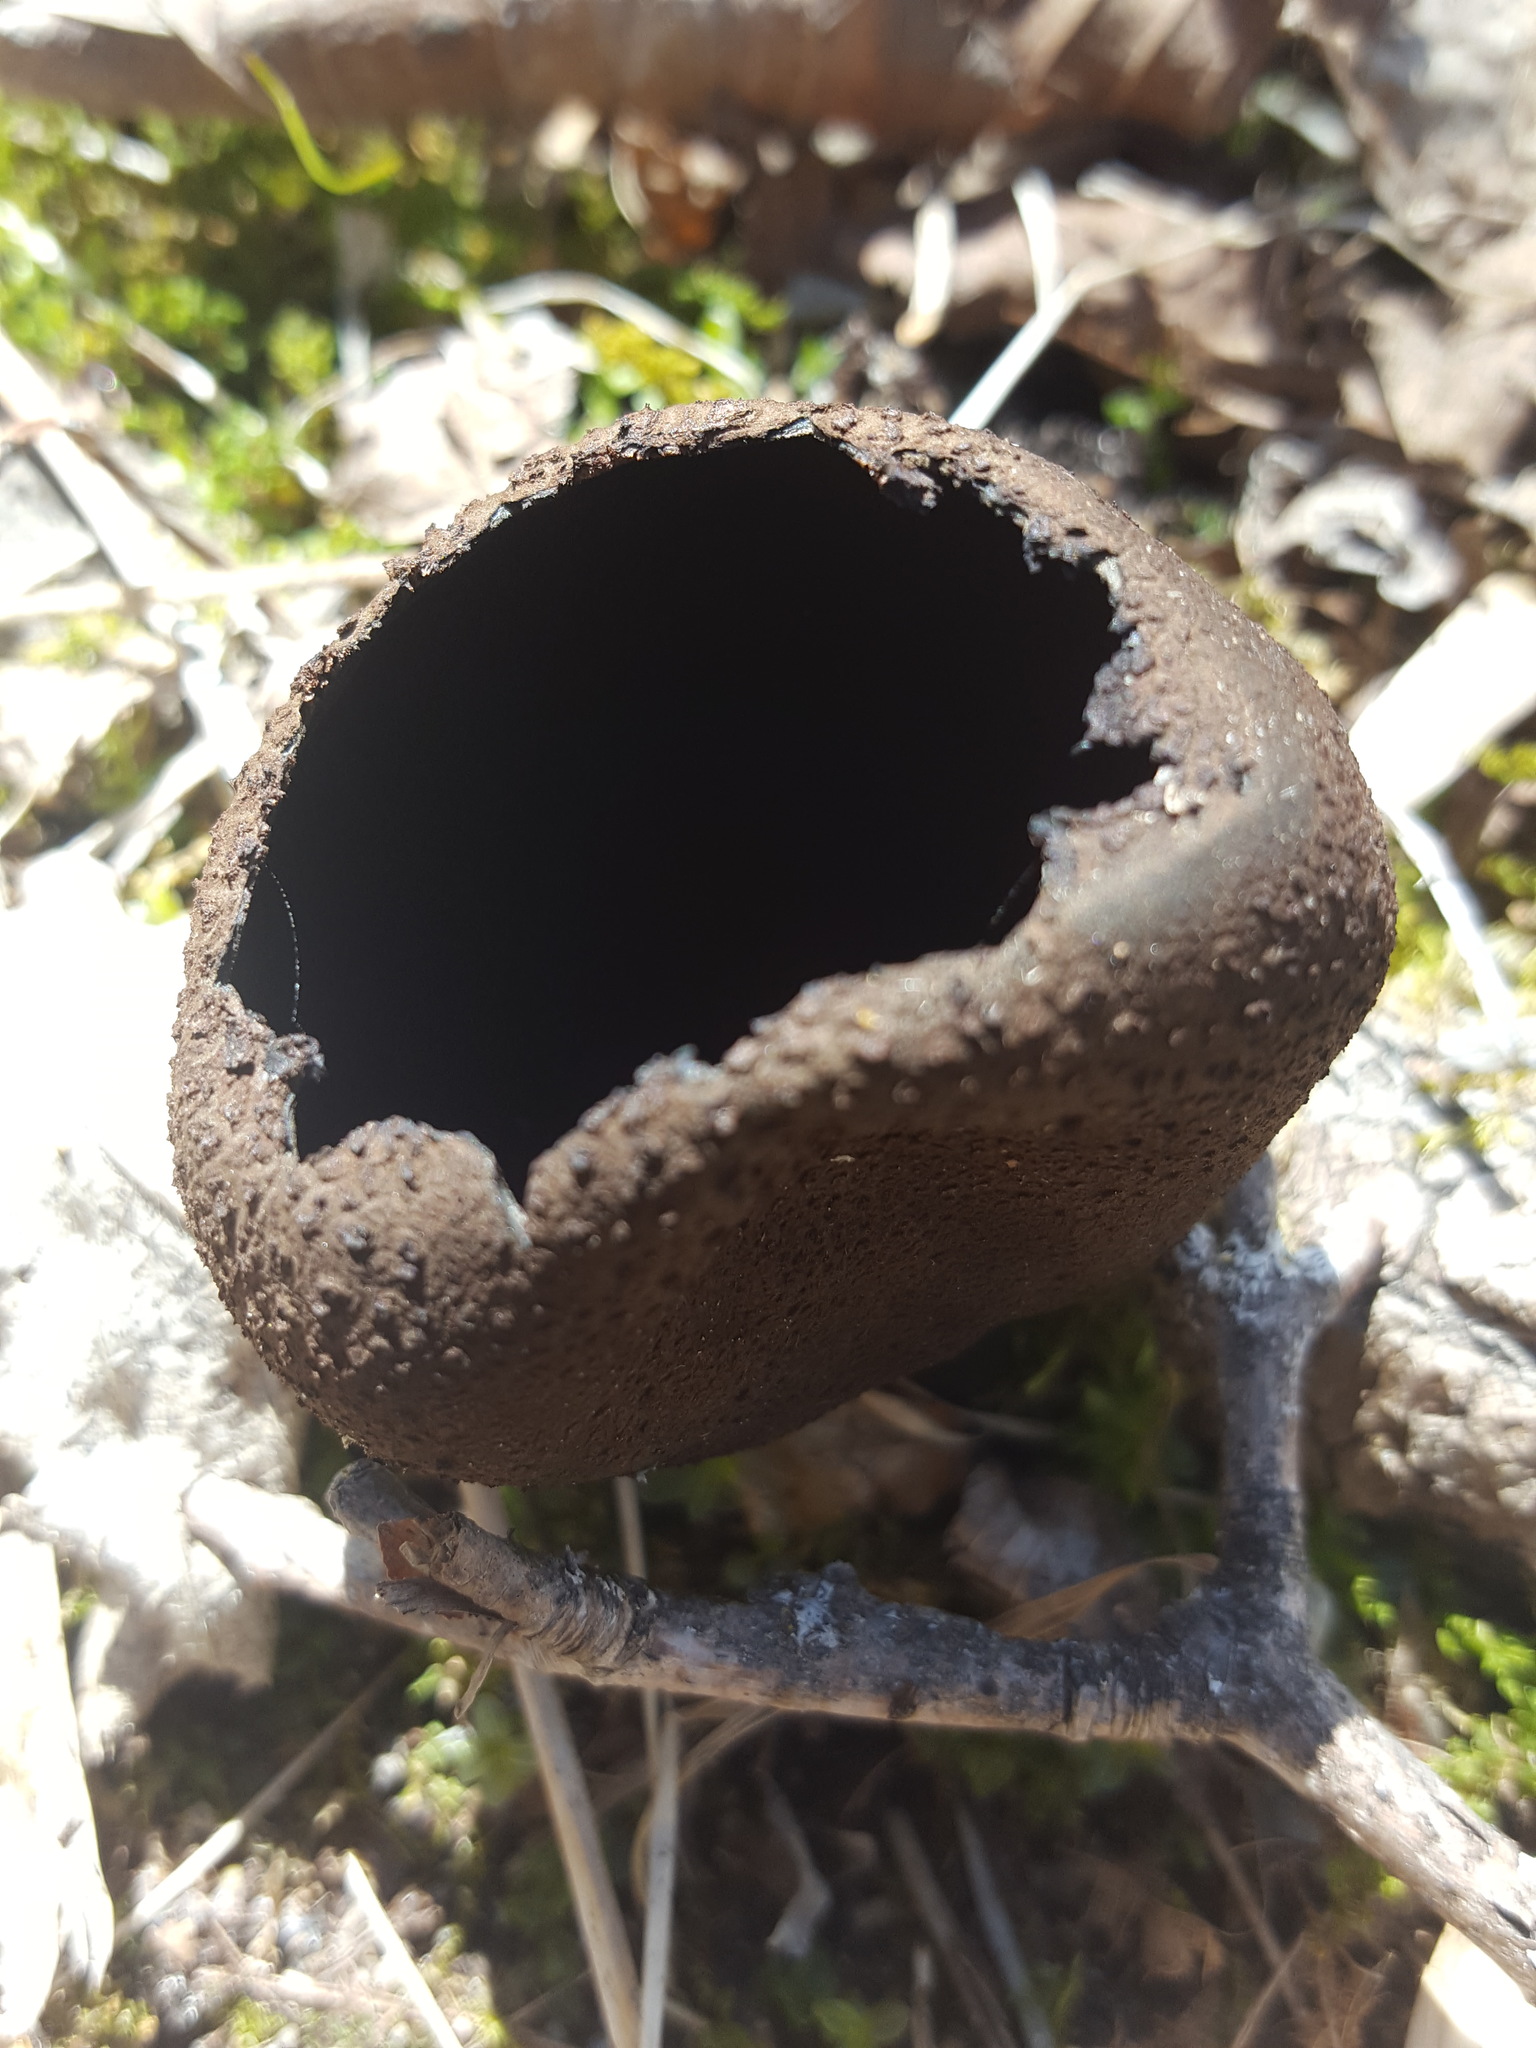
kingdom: Fungi
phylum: Ascomycota
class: Pezizomycetes
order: Pezizales
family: Sarcosomataceae
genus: Urnula
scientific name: Urnula craterium
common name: Devil's urn
